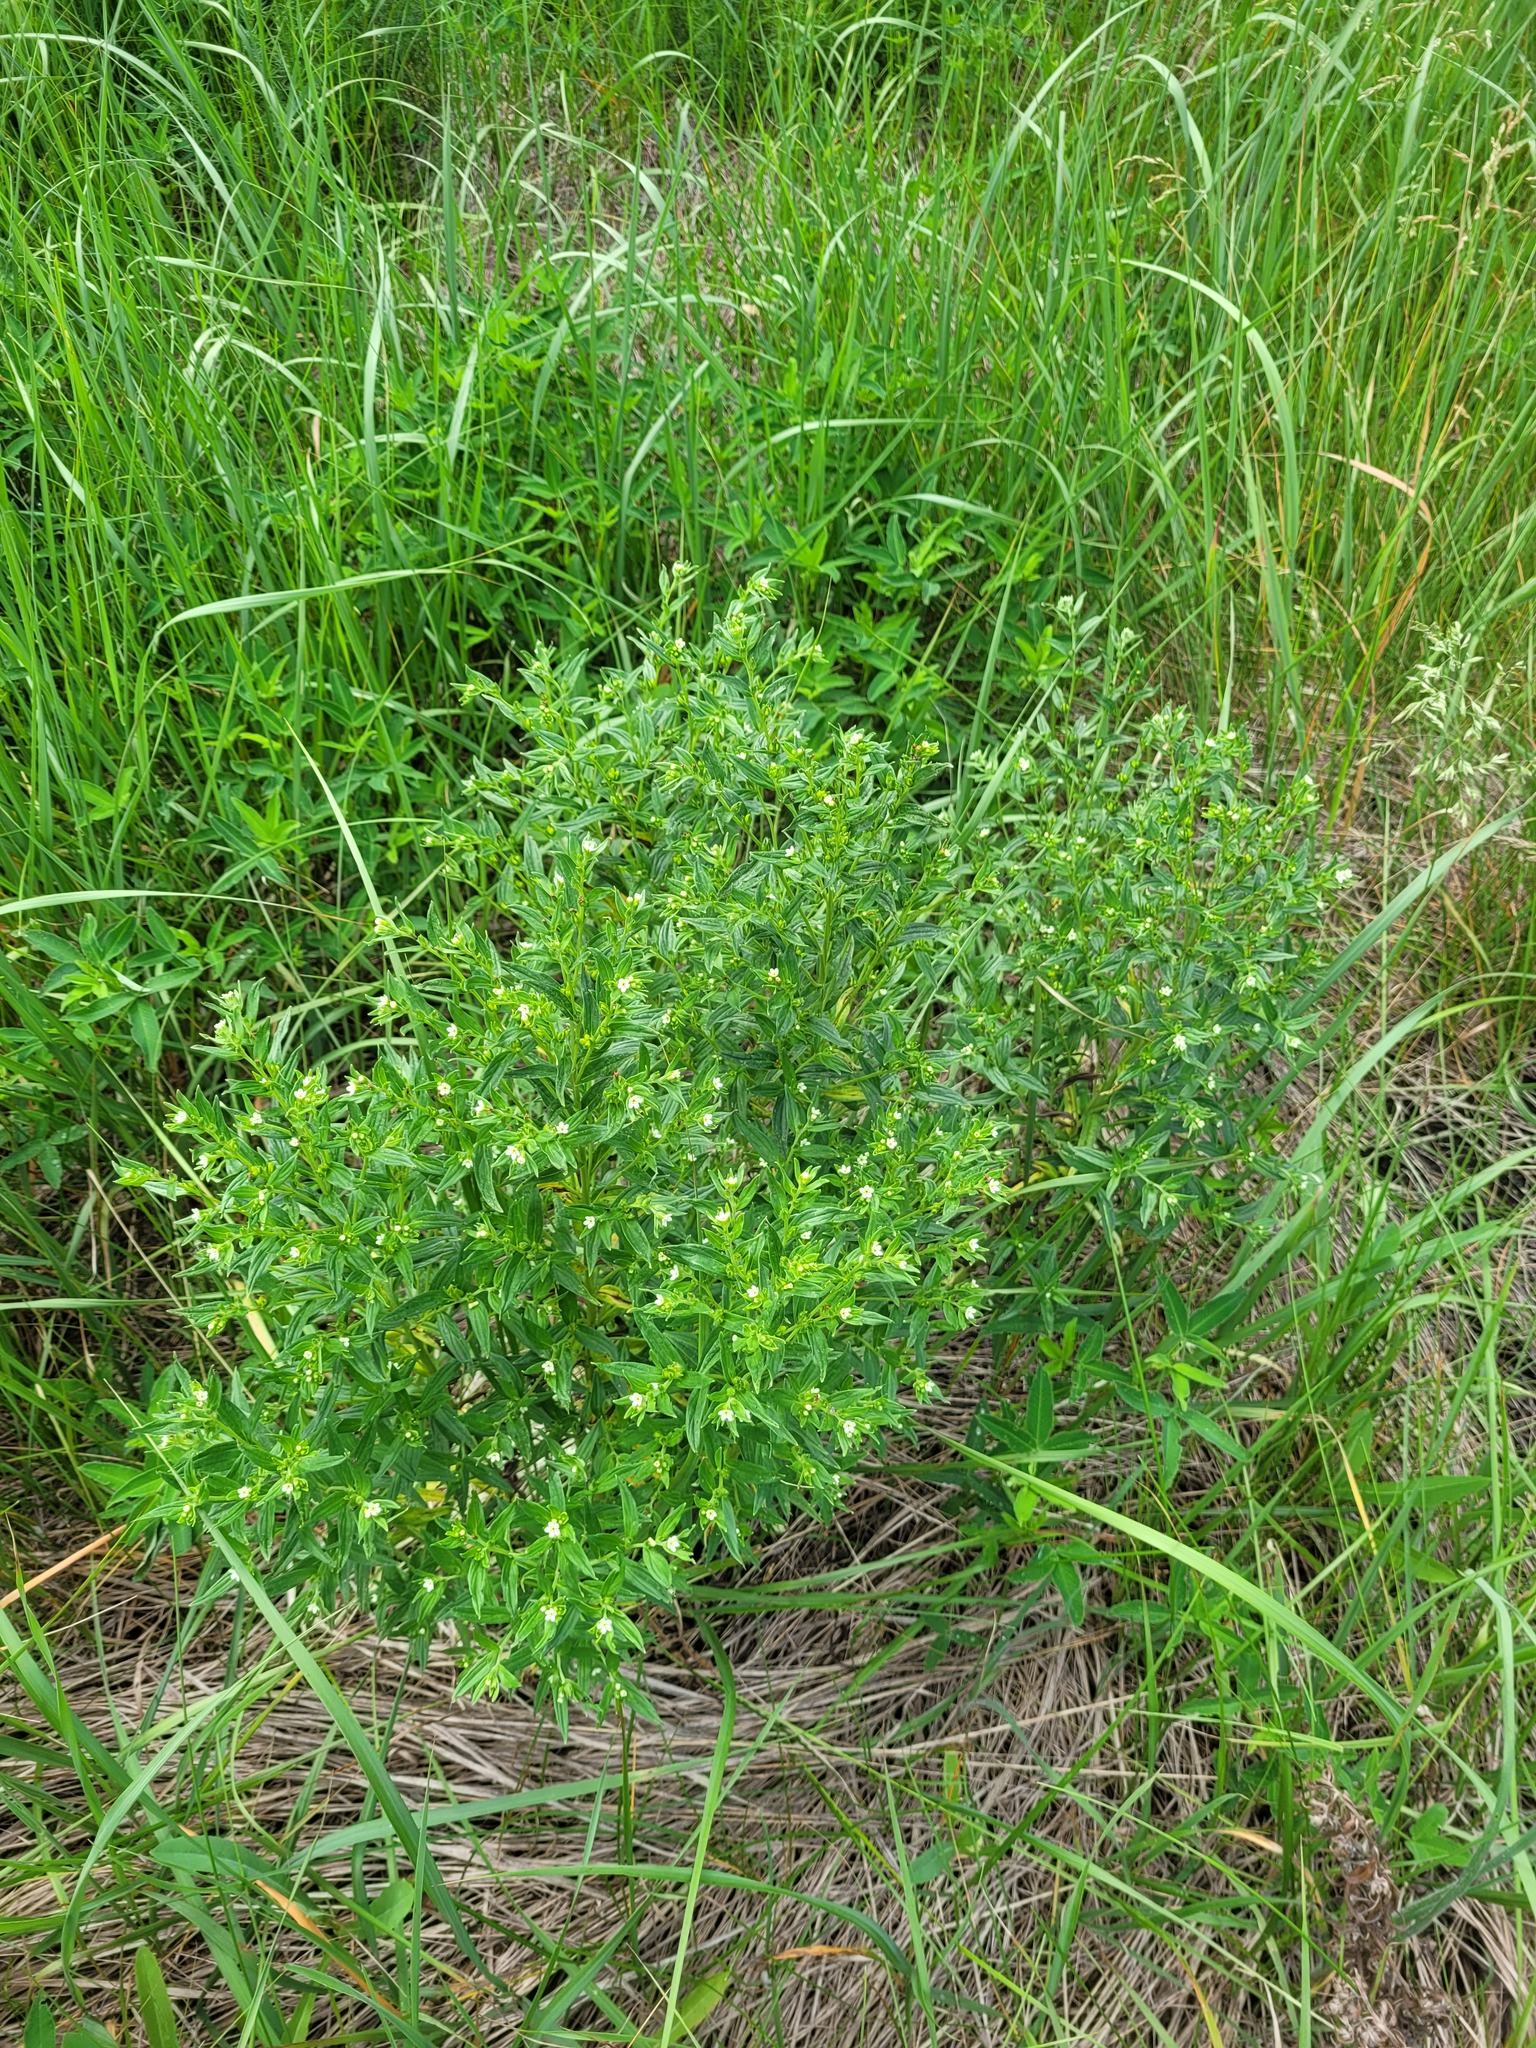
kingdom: Plantae
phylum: Tracheophyta
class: Magnoliopsida
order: Boraginales
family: Boraginaceae
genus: Lithospermum
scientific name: Lithospermum officinale
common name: Common gromwell
